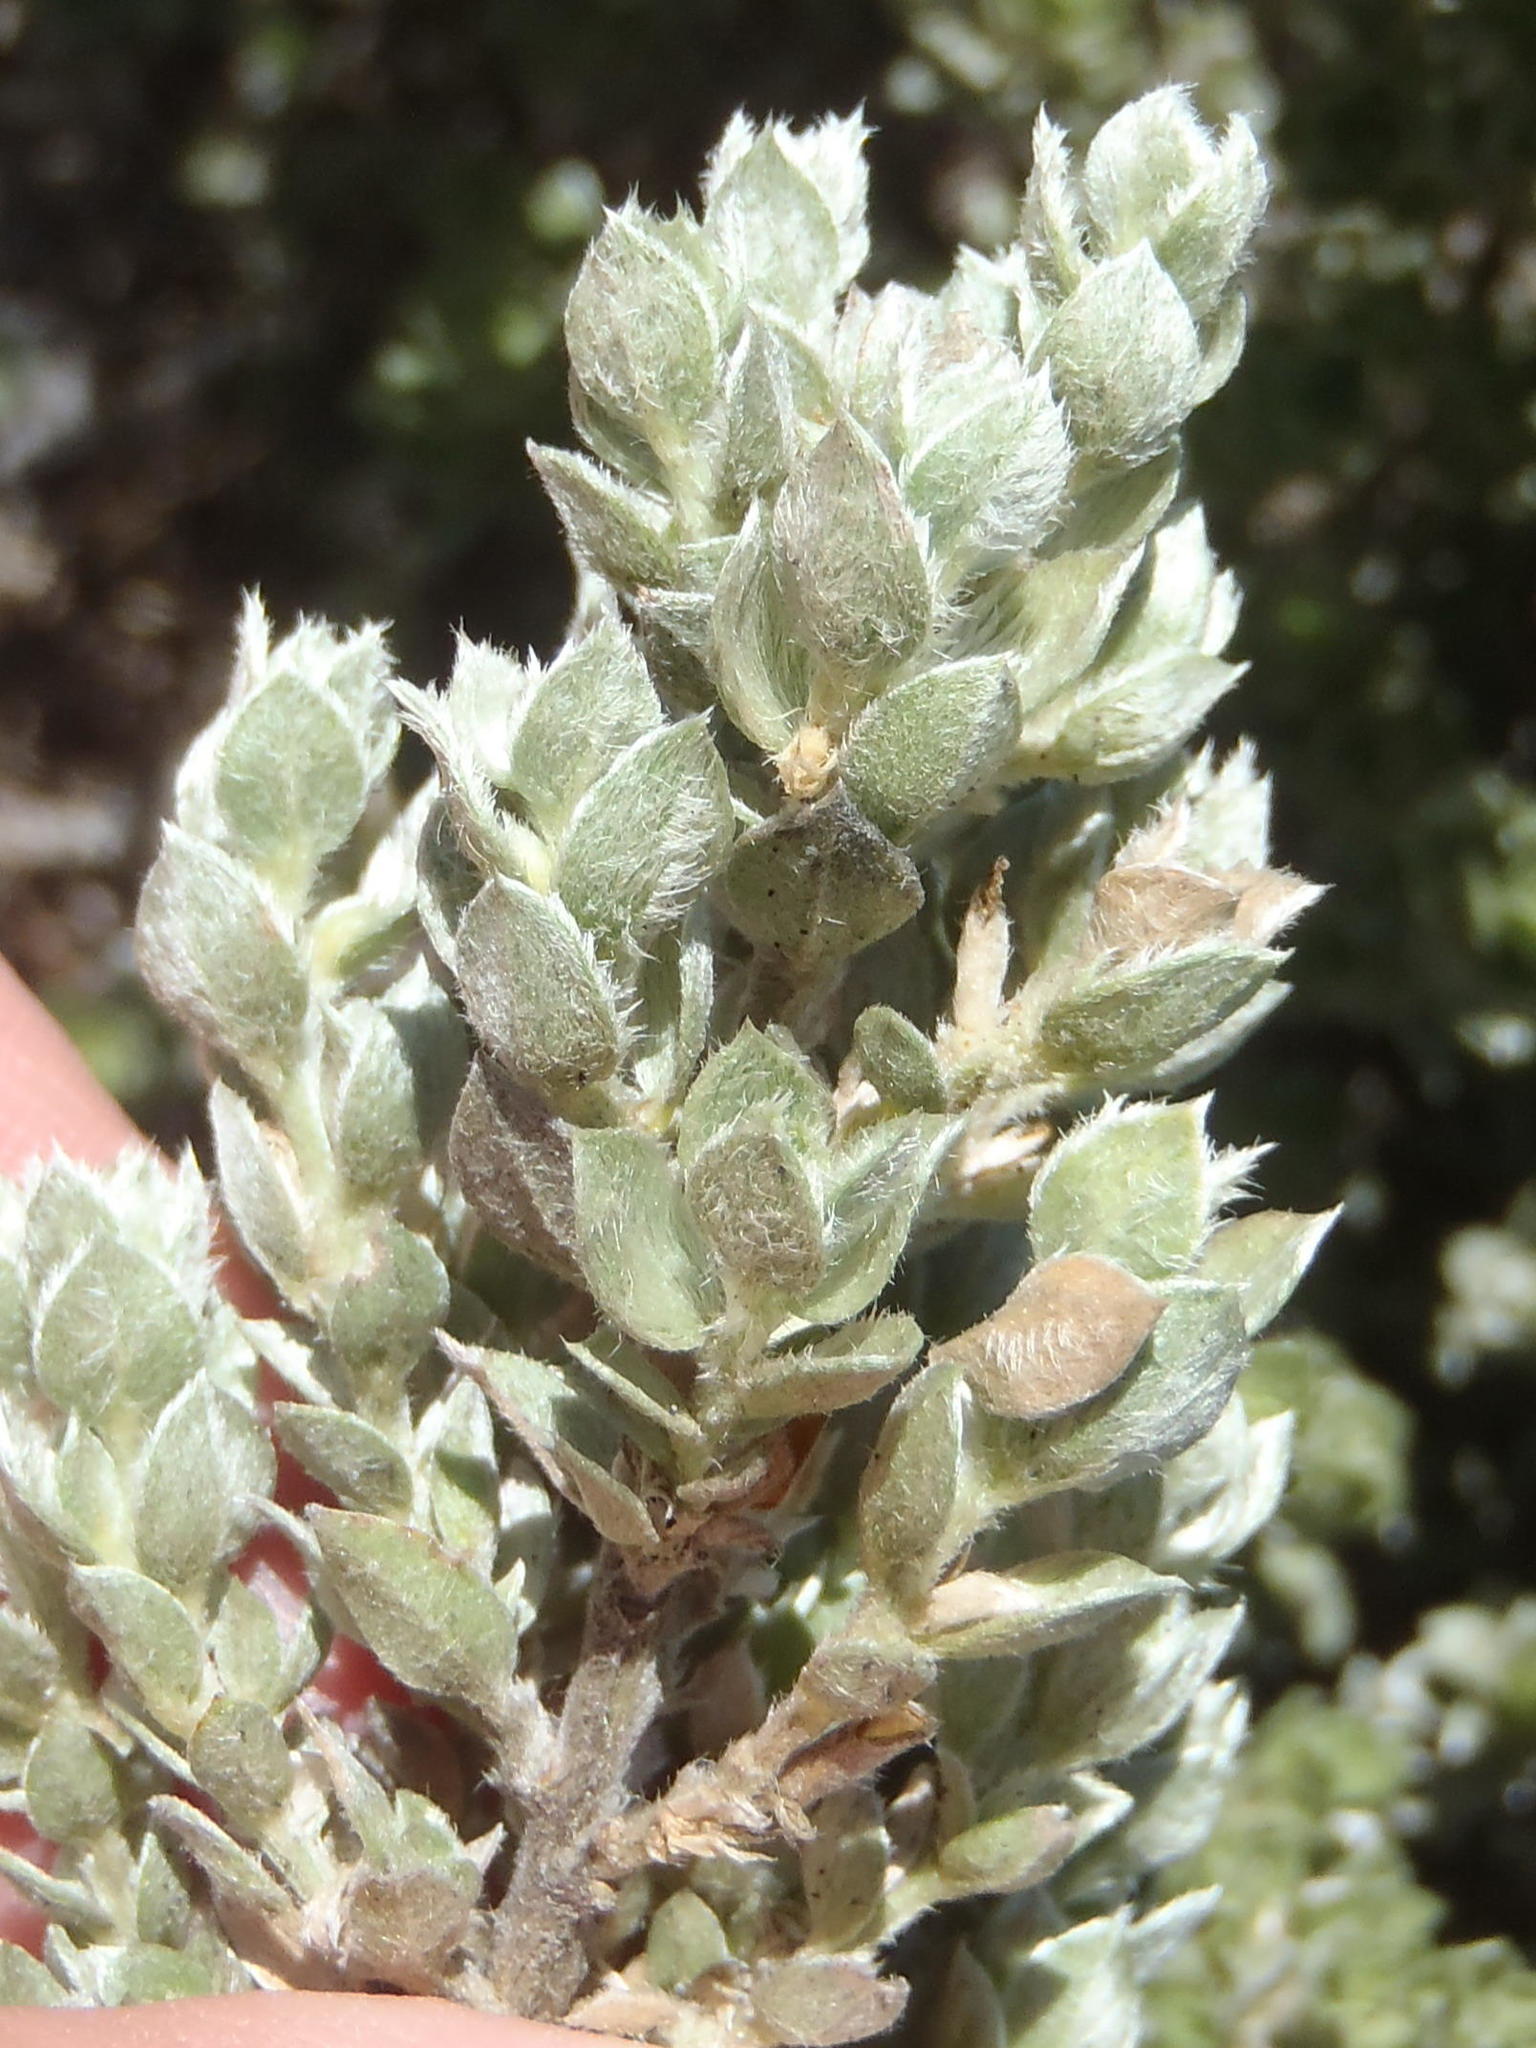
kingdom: Plantae
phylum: Tracheophyta
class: Magnoliopsida
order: Fabales
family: Fabaceae
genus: Amphithalea
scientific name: Amphithalea fourcadei
